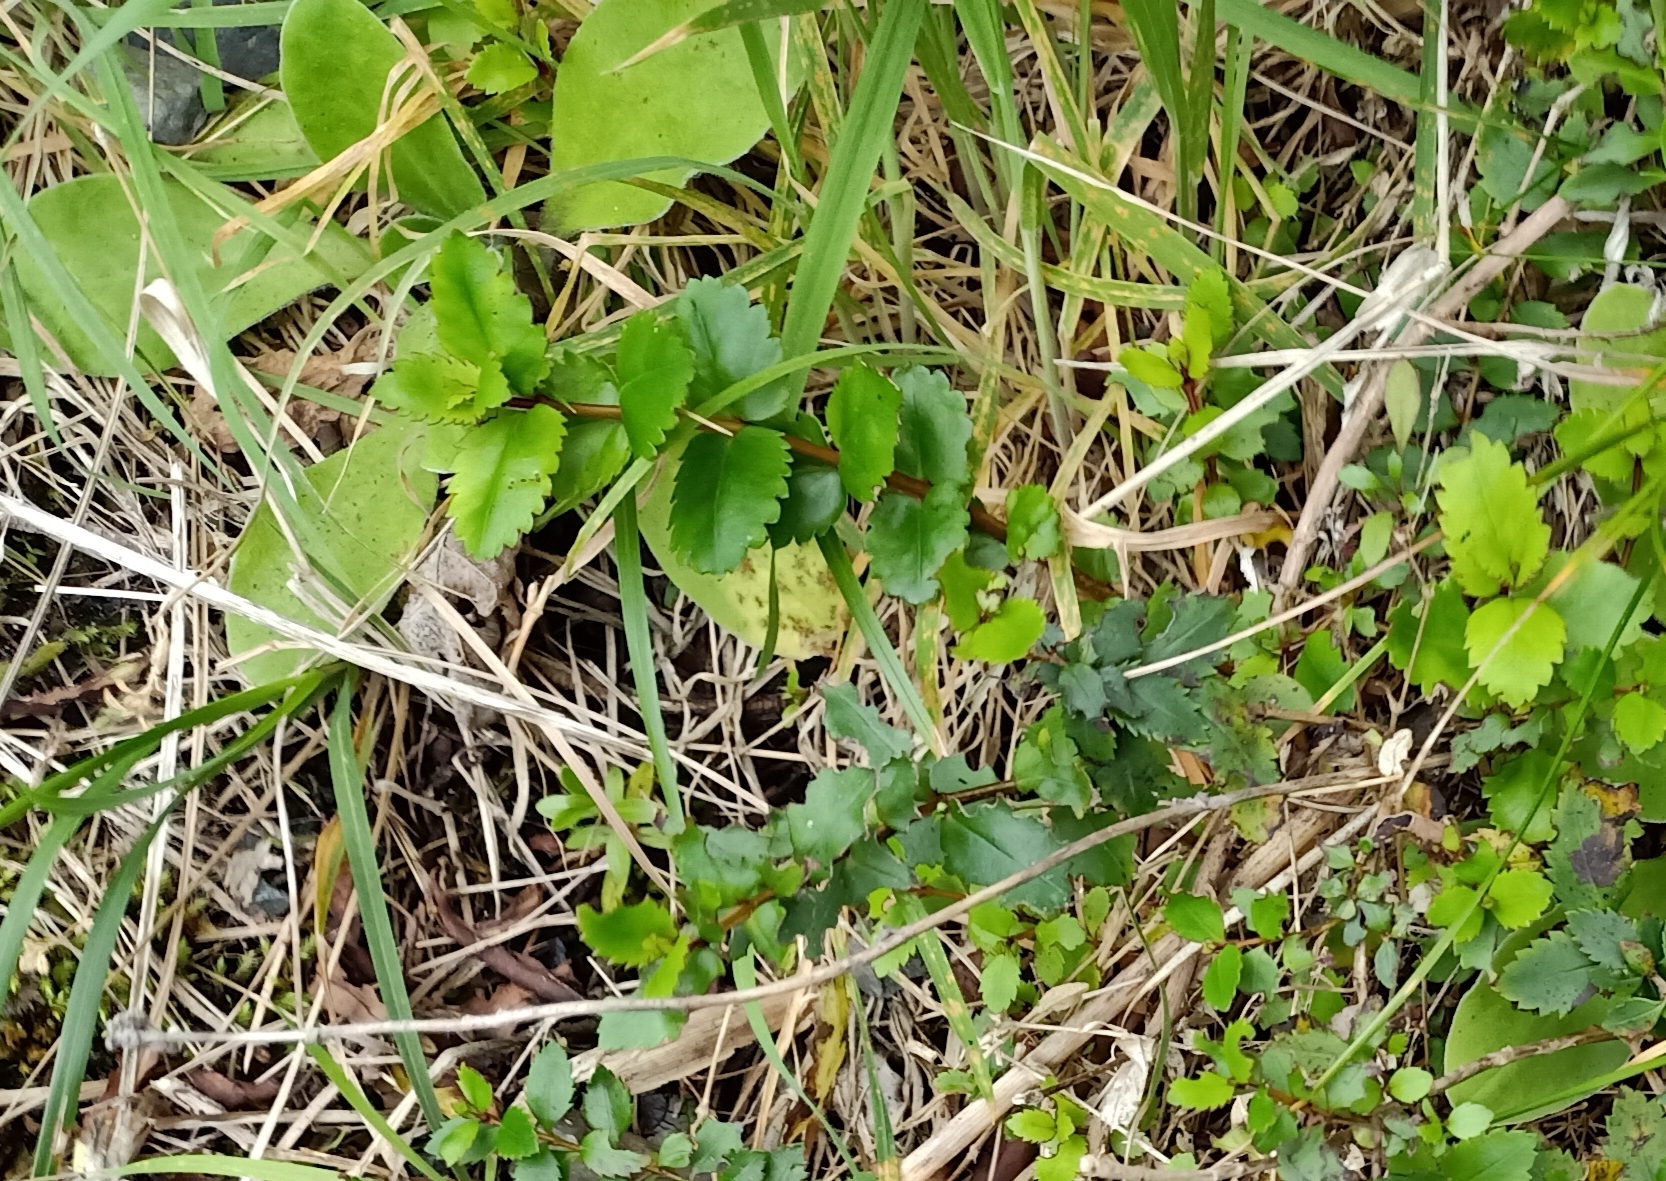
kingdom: Plantae
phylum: Tracheophyta
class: Magnoliopsida
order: Saxifragales
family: Haloragaceae
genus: Haloragis
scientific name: Haloragis erecta
